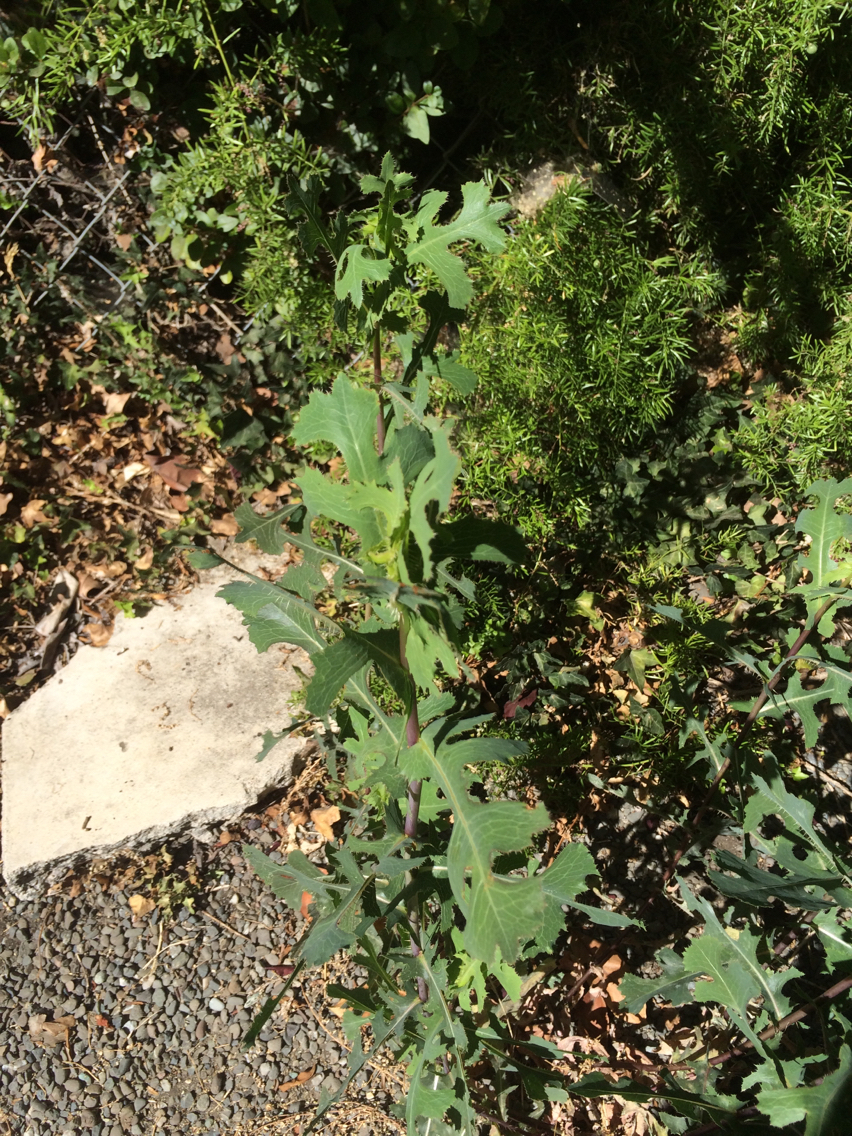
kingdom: Plantae
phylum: Tracheophyta
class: Magnoliopsida
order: Asterales
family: Asteraceae
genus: Lactuca
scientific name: Lactuca serriola
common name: Prickly lettuce
